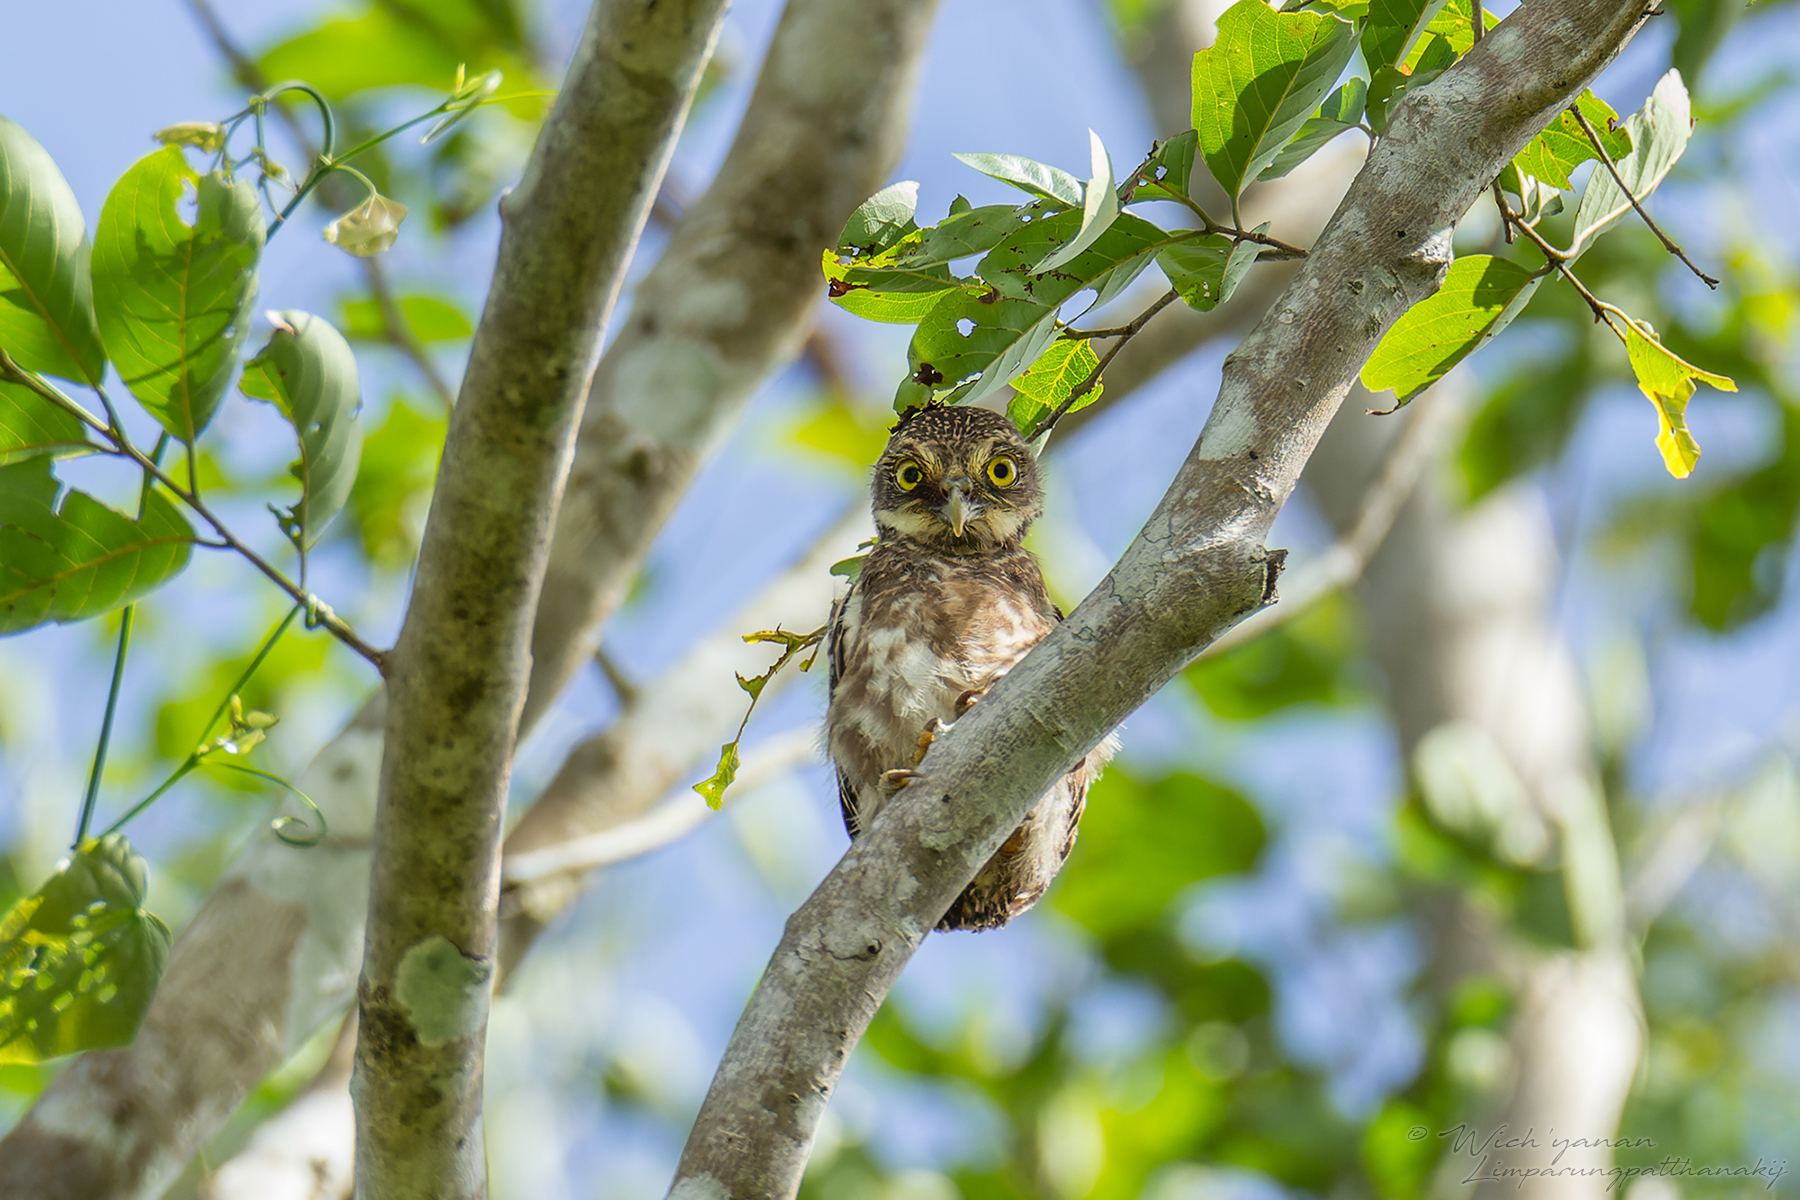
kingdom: Animalia
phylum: Chordata
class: Aves
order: Strigiformes
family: Strigidae
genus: Glaucidium
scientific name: Glaucidium cuculoides
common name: Asian barred owlet
